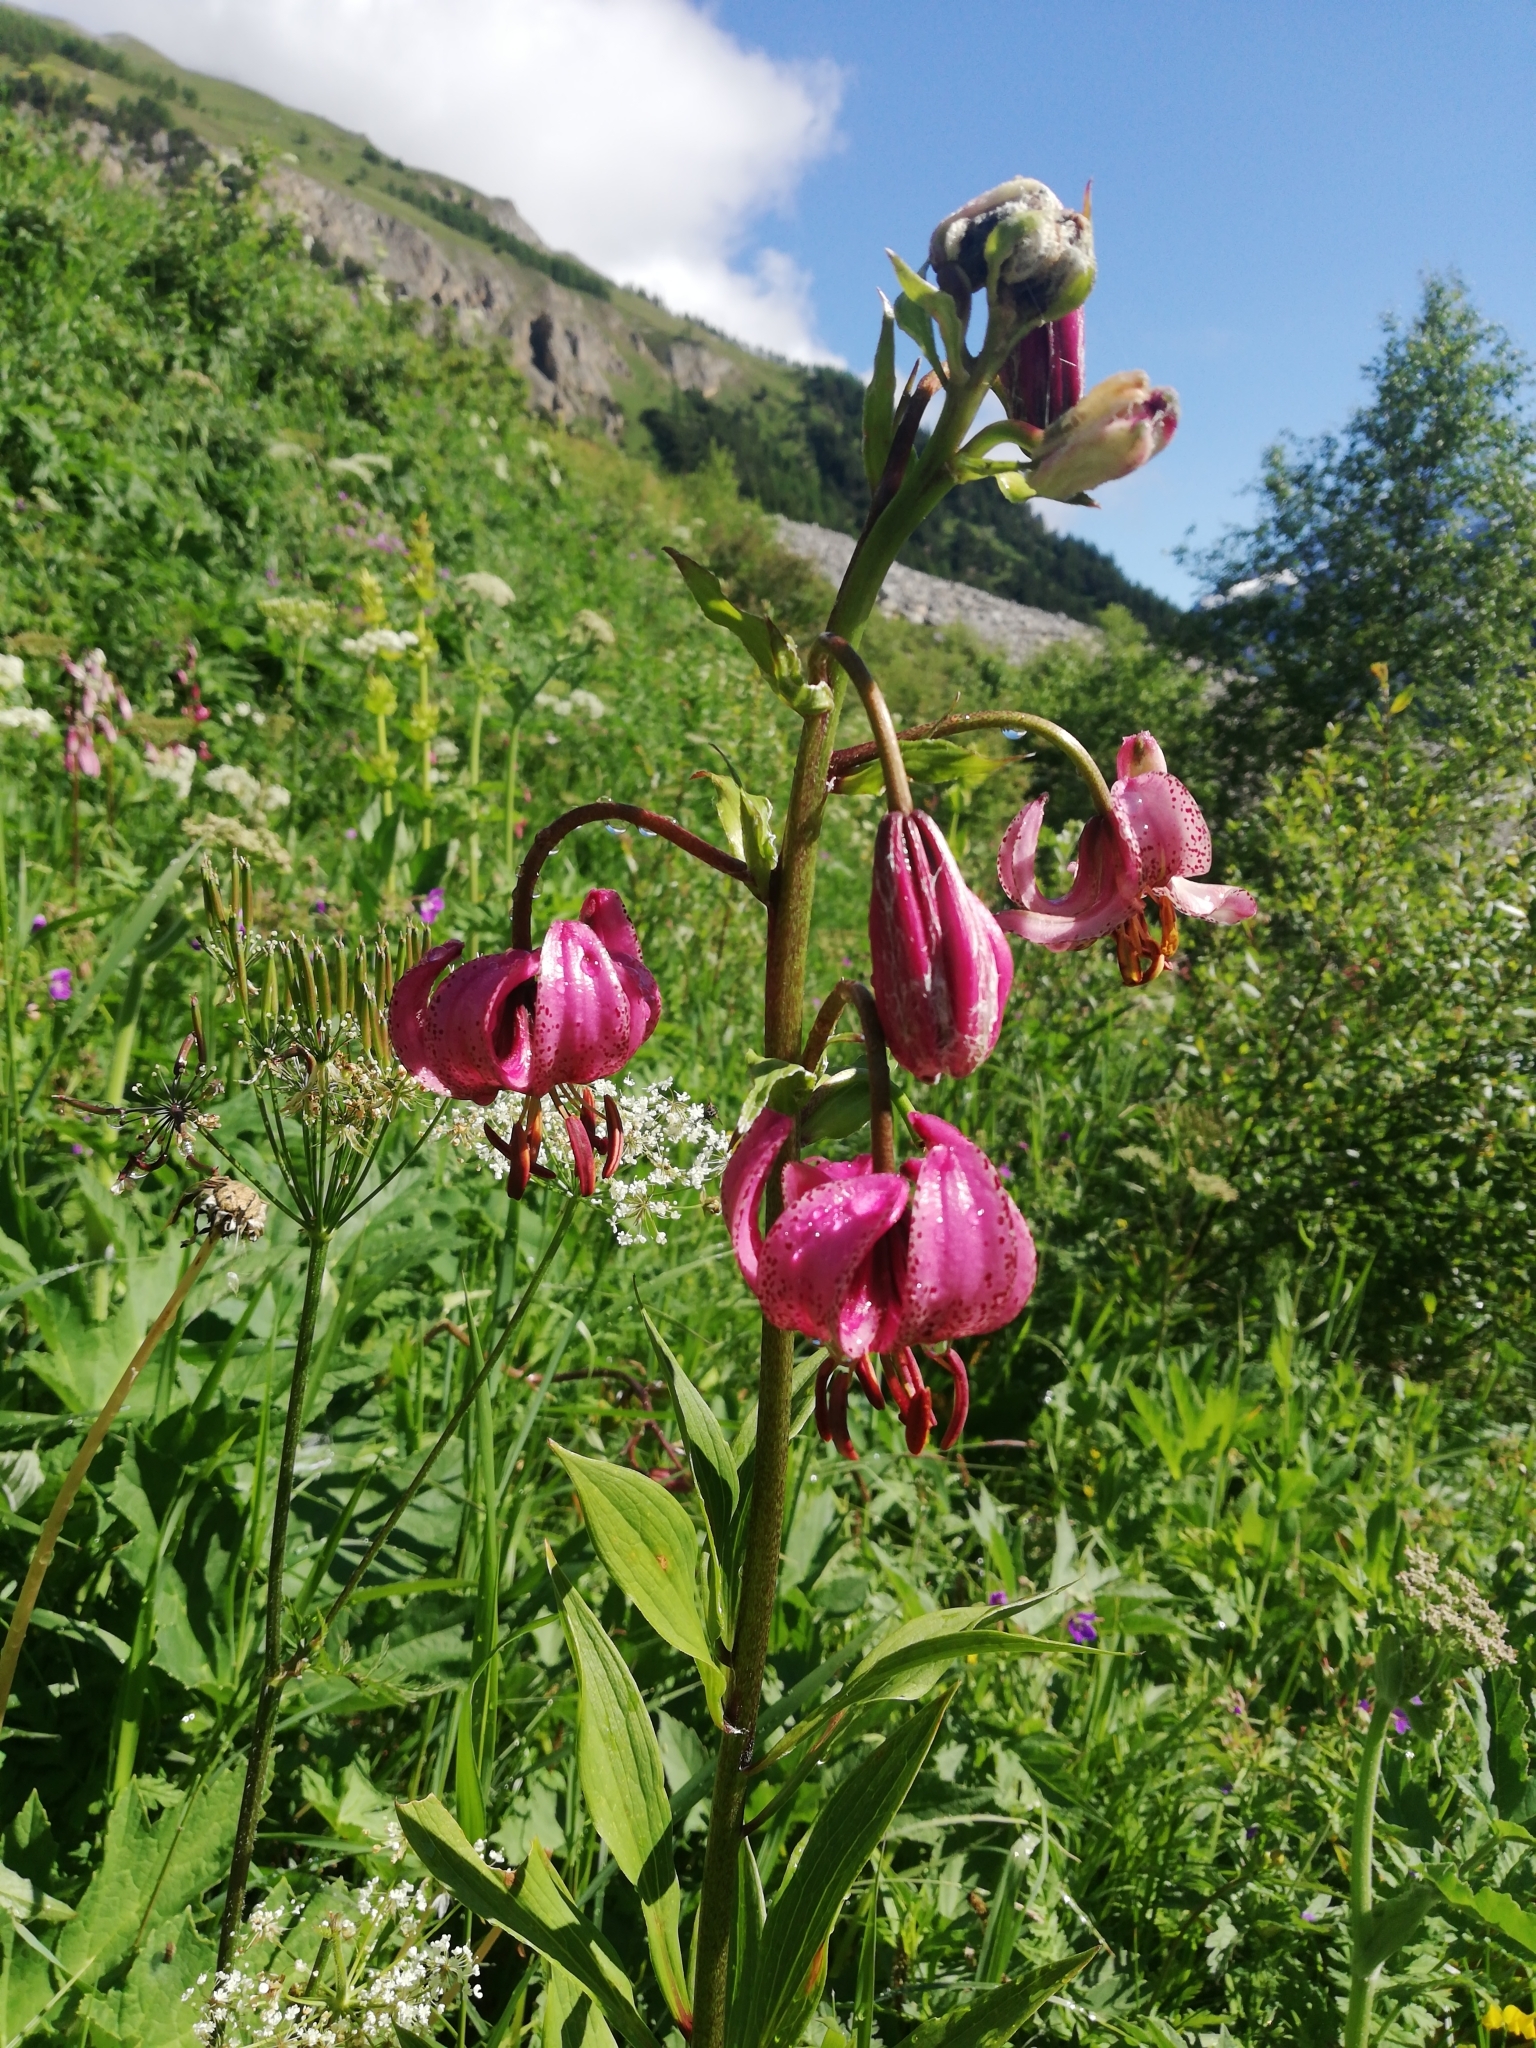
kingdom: Plantae
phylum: Tracheophyta
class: Liliopsida
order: Liliales
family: Liliaceae
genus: Lilium
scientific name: Lilium martagon
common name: Martagon lily
